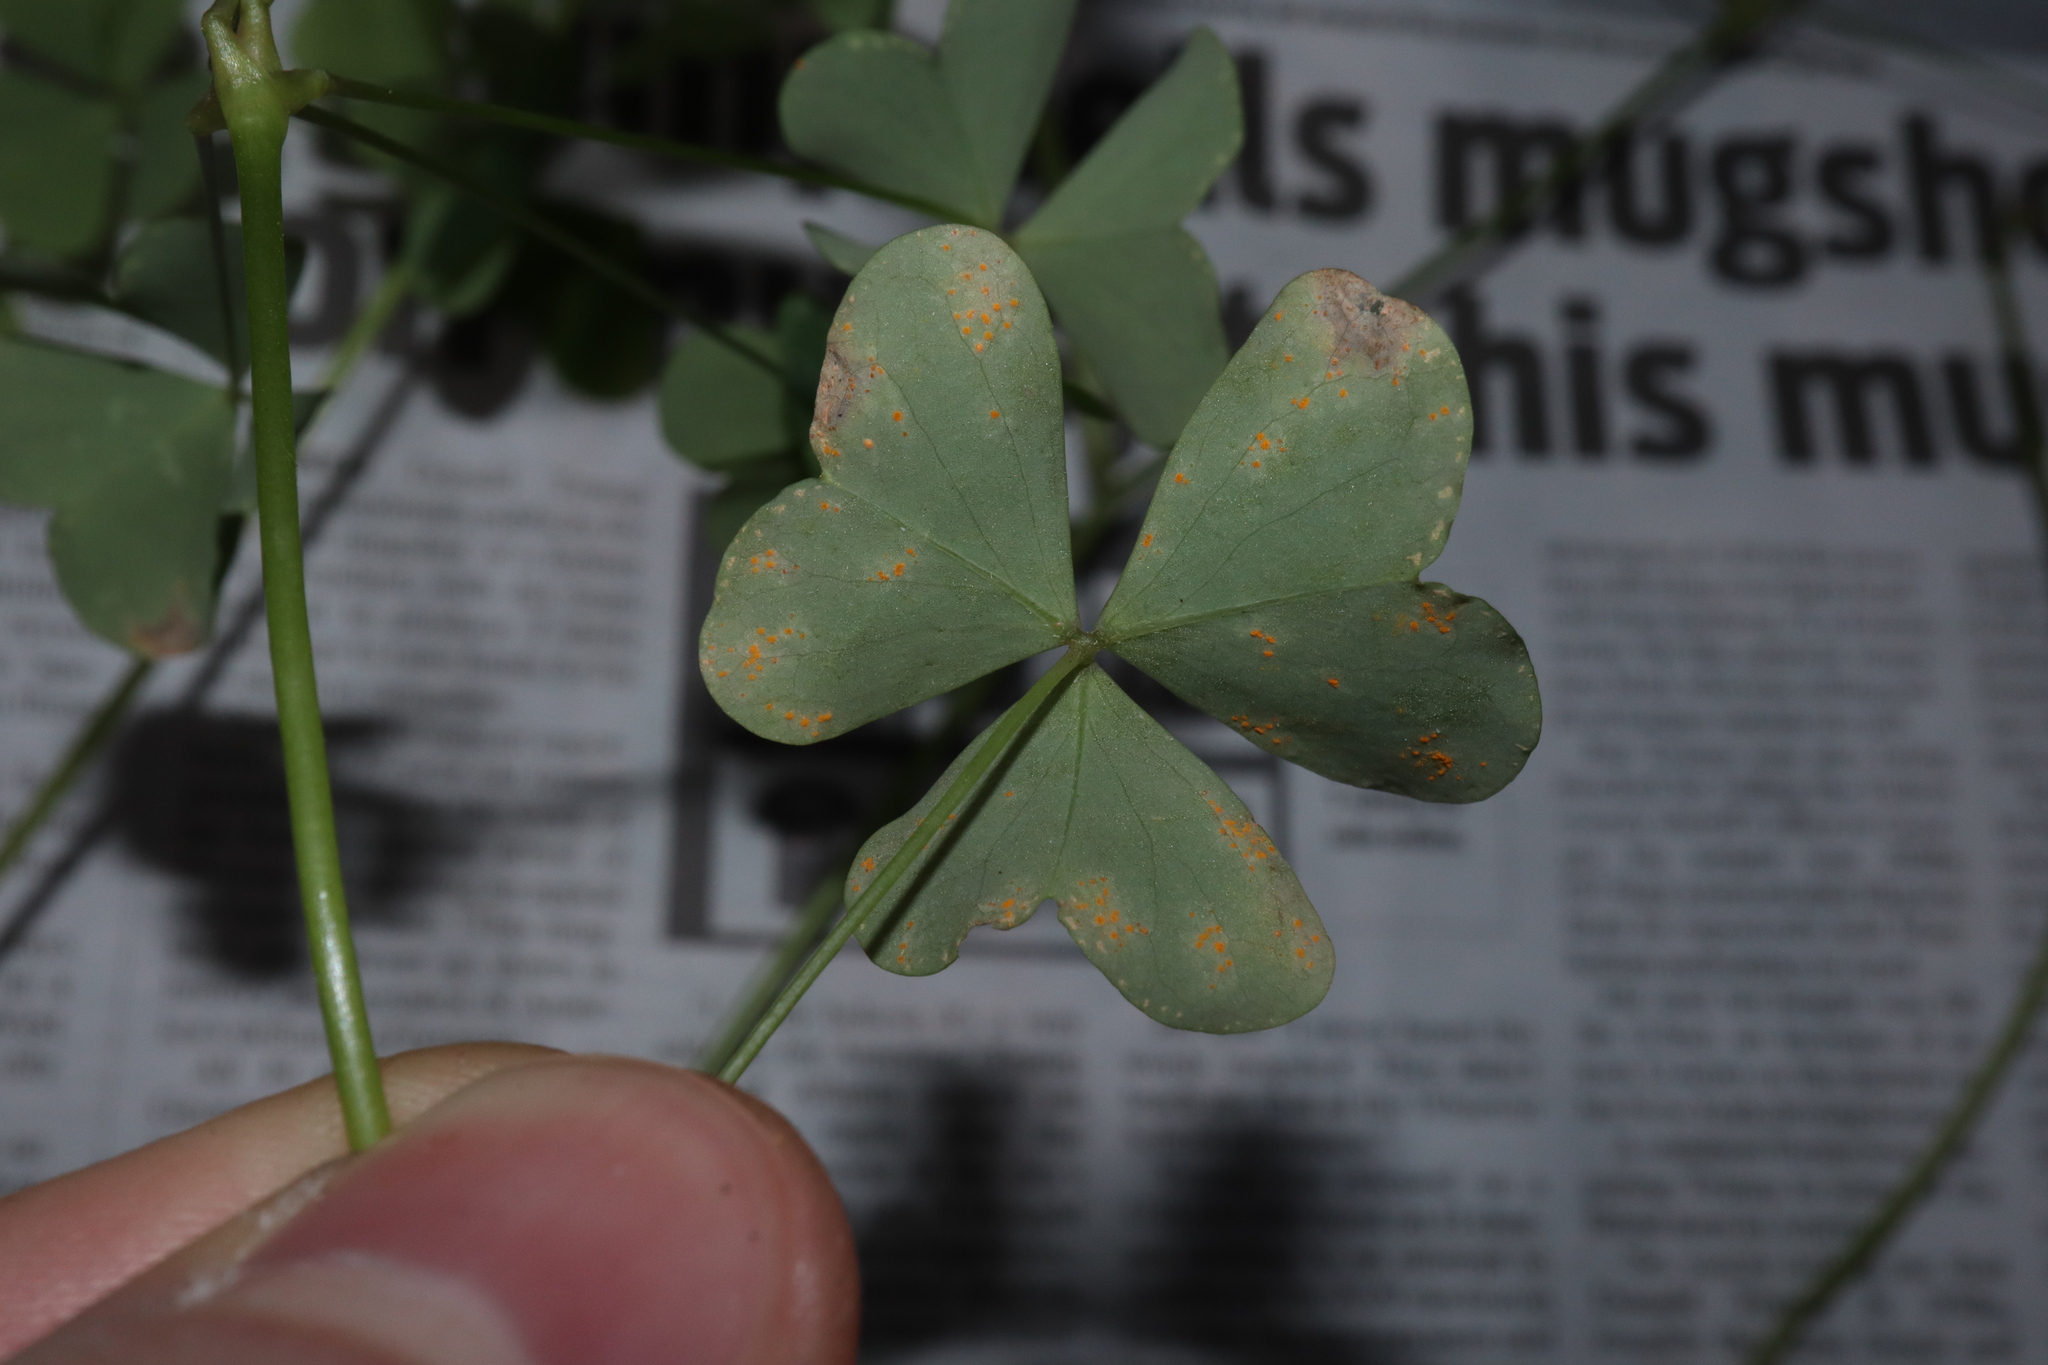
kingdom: Fungi
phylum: Basidiomycota
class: Pucciniomycetes
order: Pucciniales
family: Pucciniaceae
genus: Puccinia
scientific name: Puccinia oxalidis
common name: Oxalis rust
